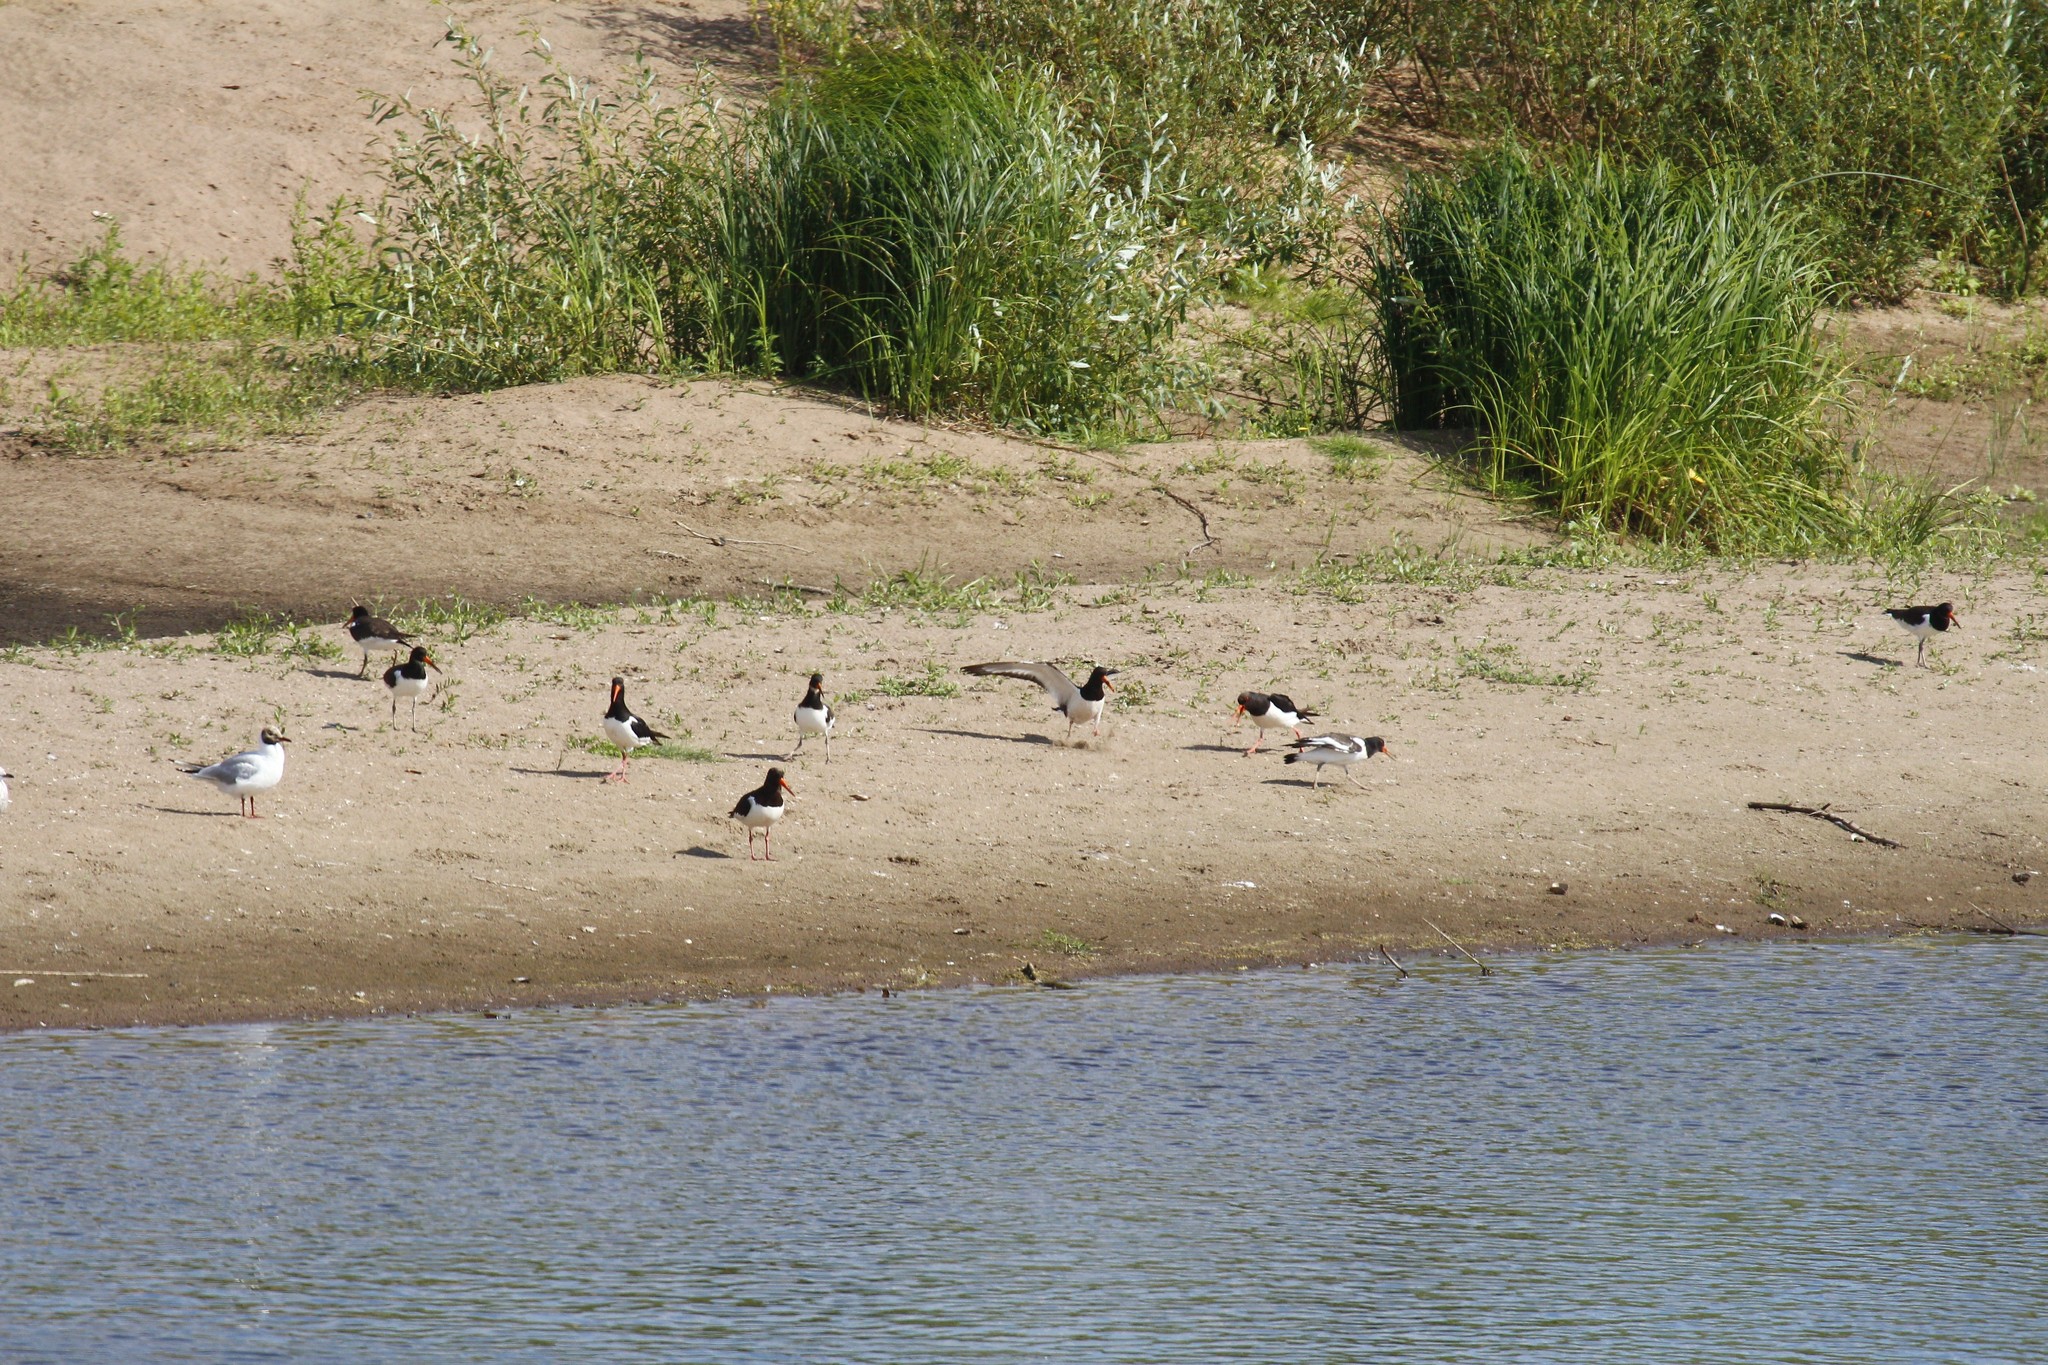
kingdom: Animalia
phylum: Chordata
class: Aves
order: Charadriiformes
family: Haematopodidae
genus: Haematopus
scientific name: Haematopus ostralegus
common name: Eurasian oystercatcher
